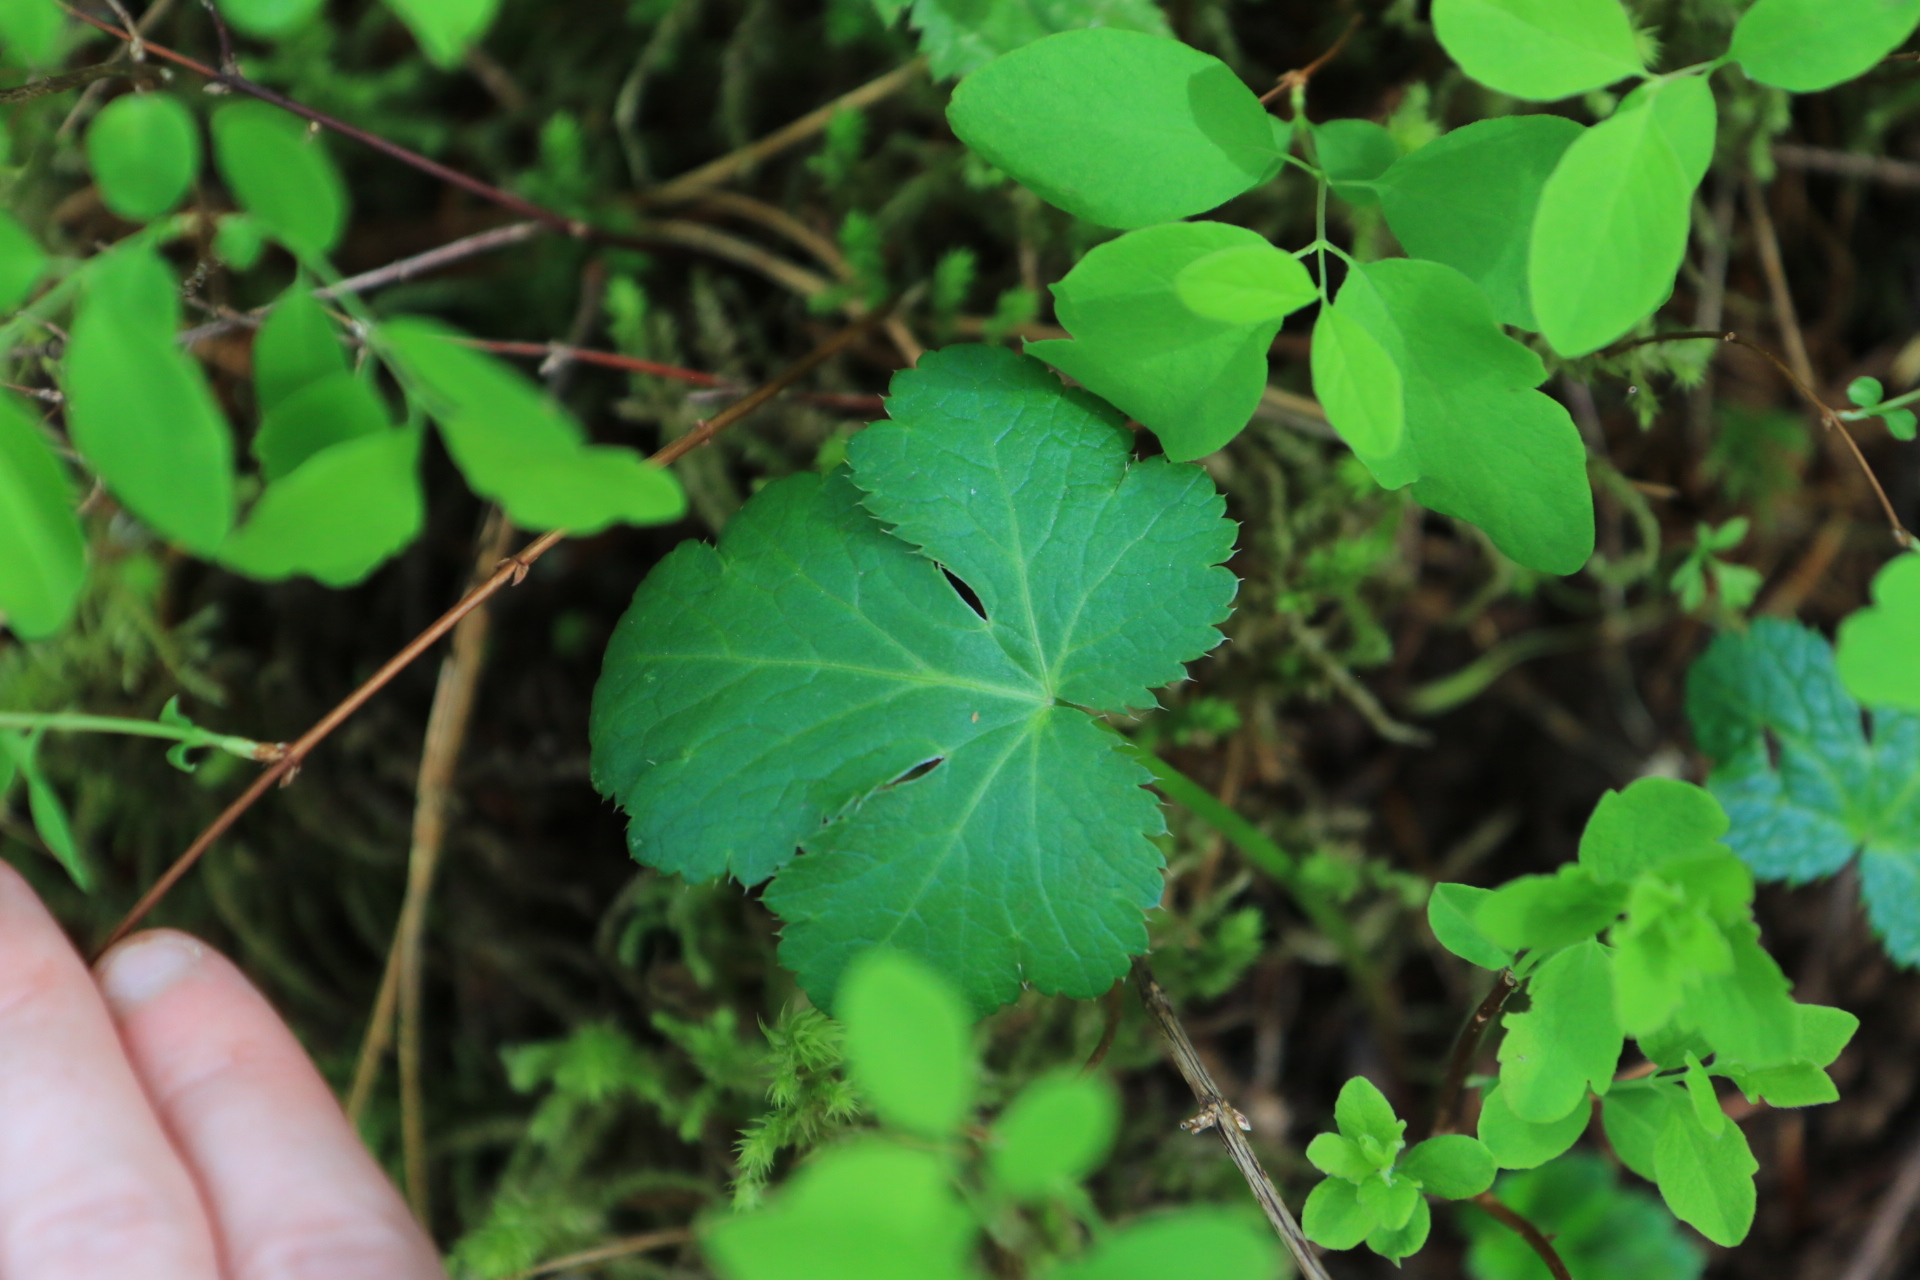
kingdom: Plantae
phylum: Tracheophyta
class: Magnoliopsida
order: Apiales
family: Apiaceae
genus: Sanicula
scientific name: Sanicula crassicaulis
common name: Western snakeroot
